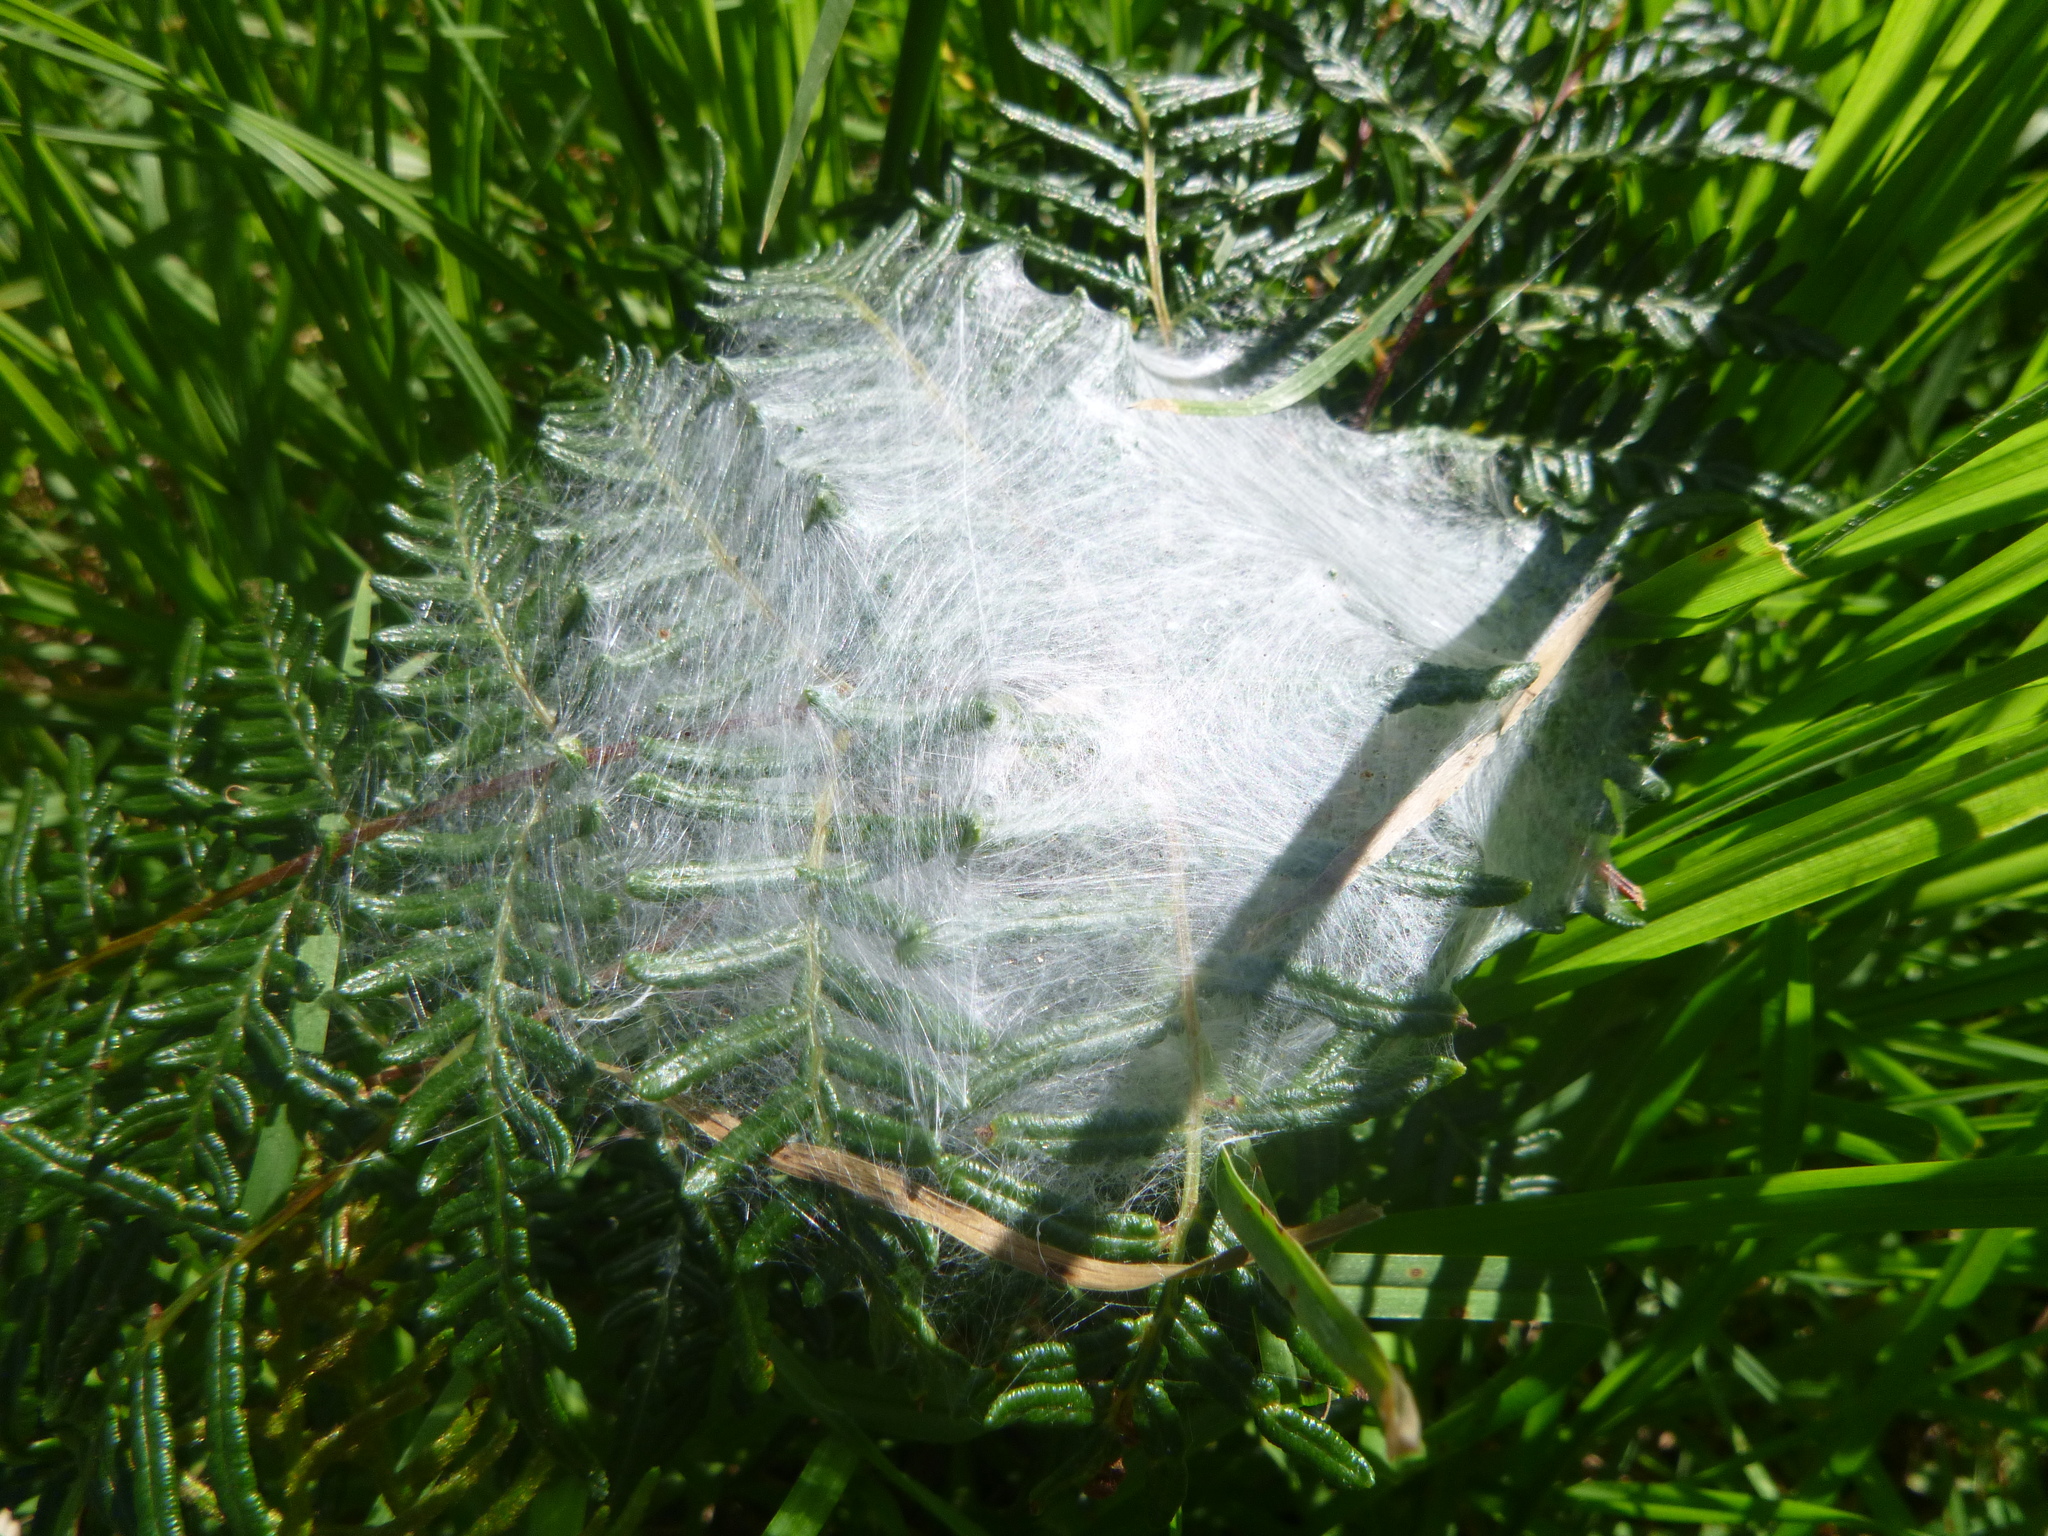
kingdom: Animalia
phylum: Arthropoda
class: Arachnida
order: Araneae
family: Pisauridae
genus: Dolomedes
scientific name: Dolomedes minor
